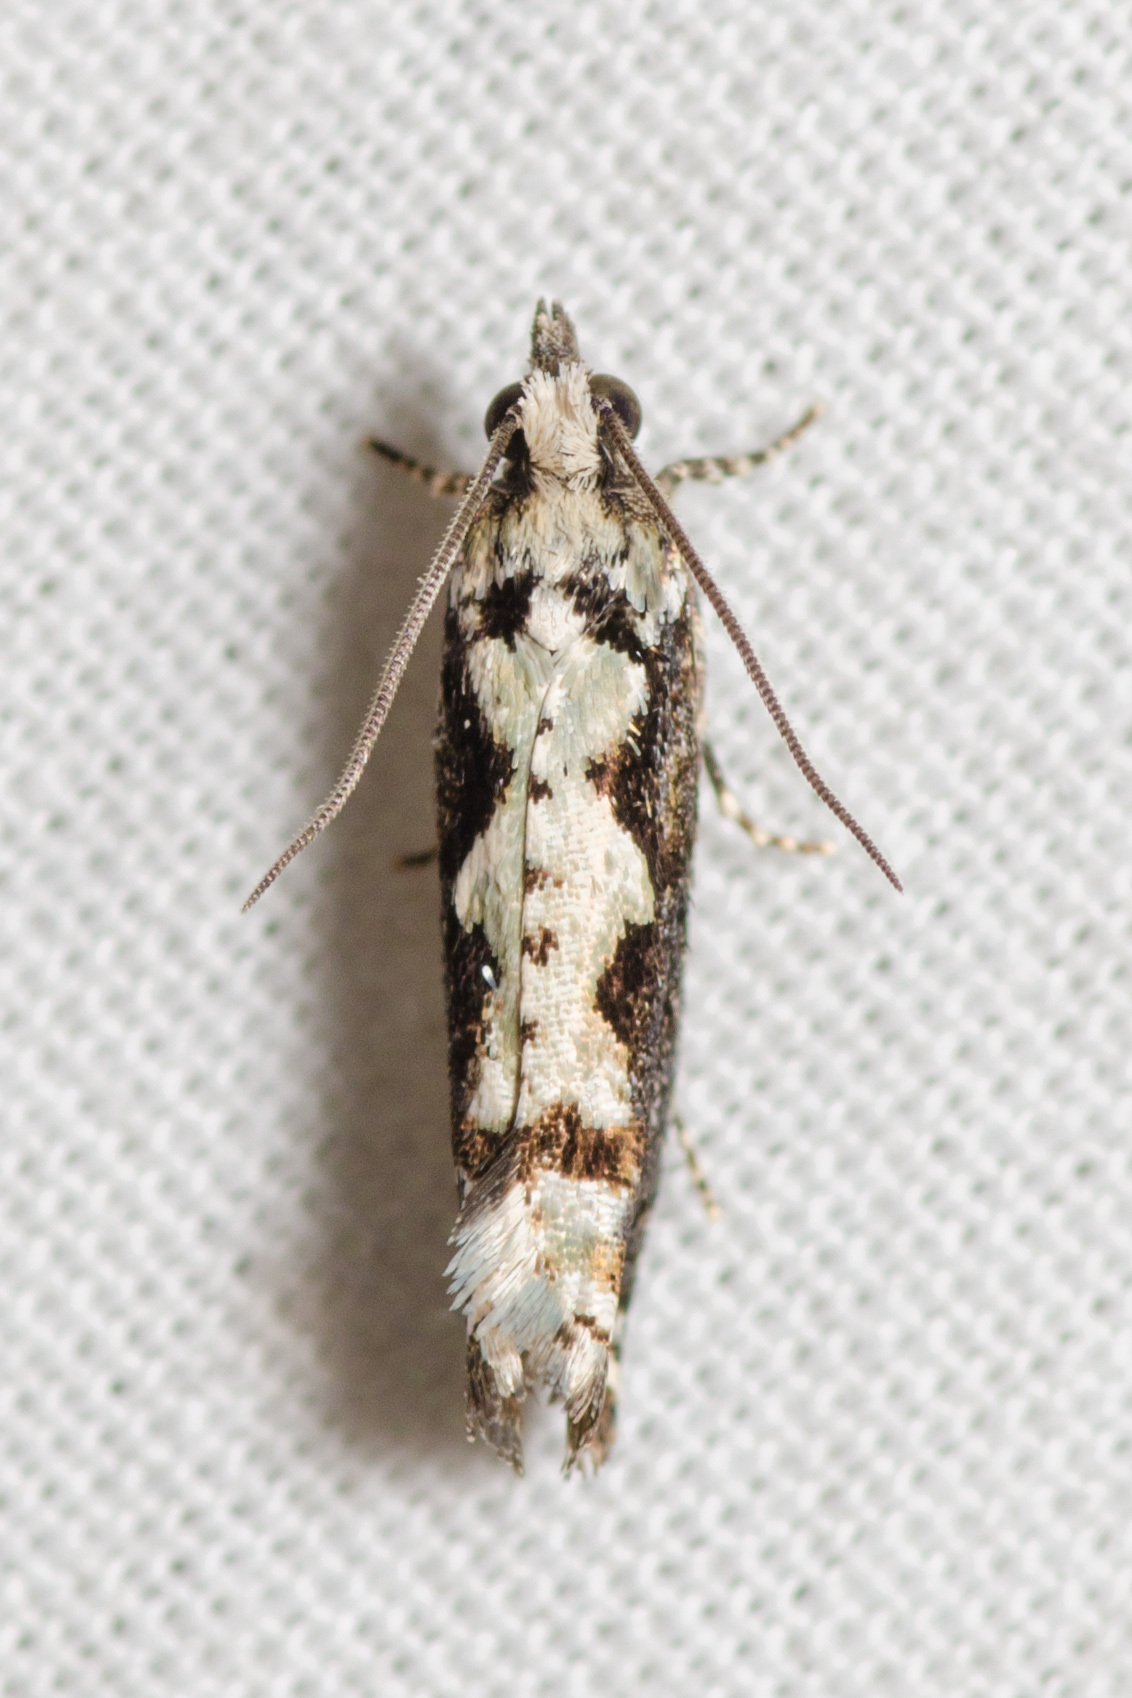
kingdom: Animalia
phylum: Arthropoda
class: Insecta
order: Lepidoptera
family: Tortricidae
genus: Chimoptesis
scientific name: Chimoptesis pennsylvaniana
